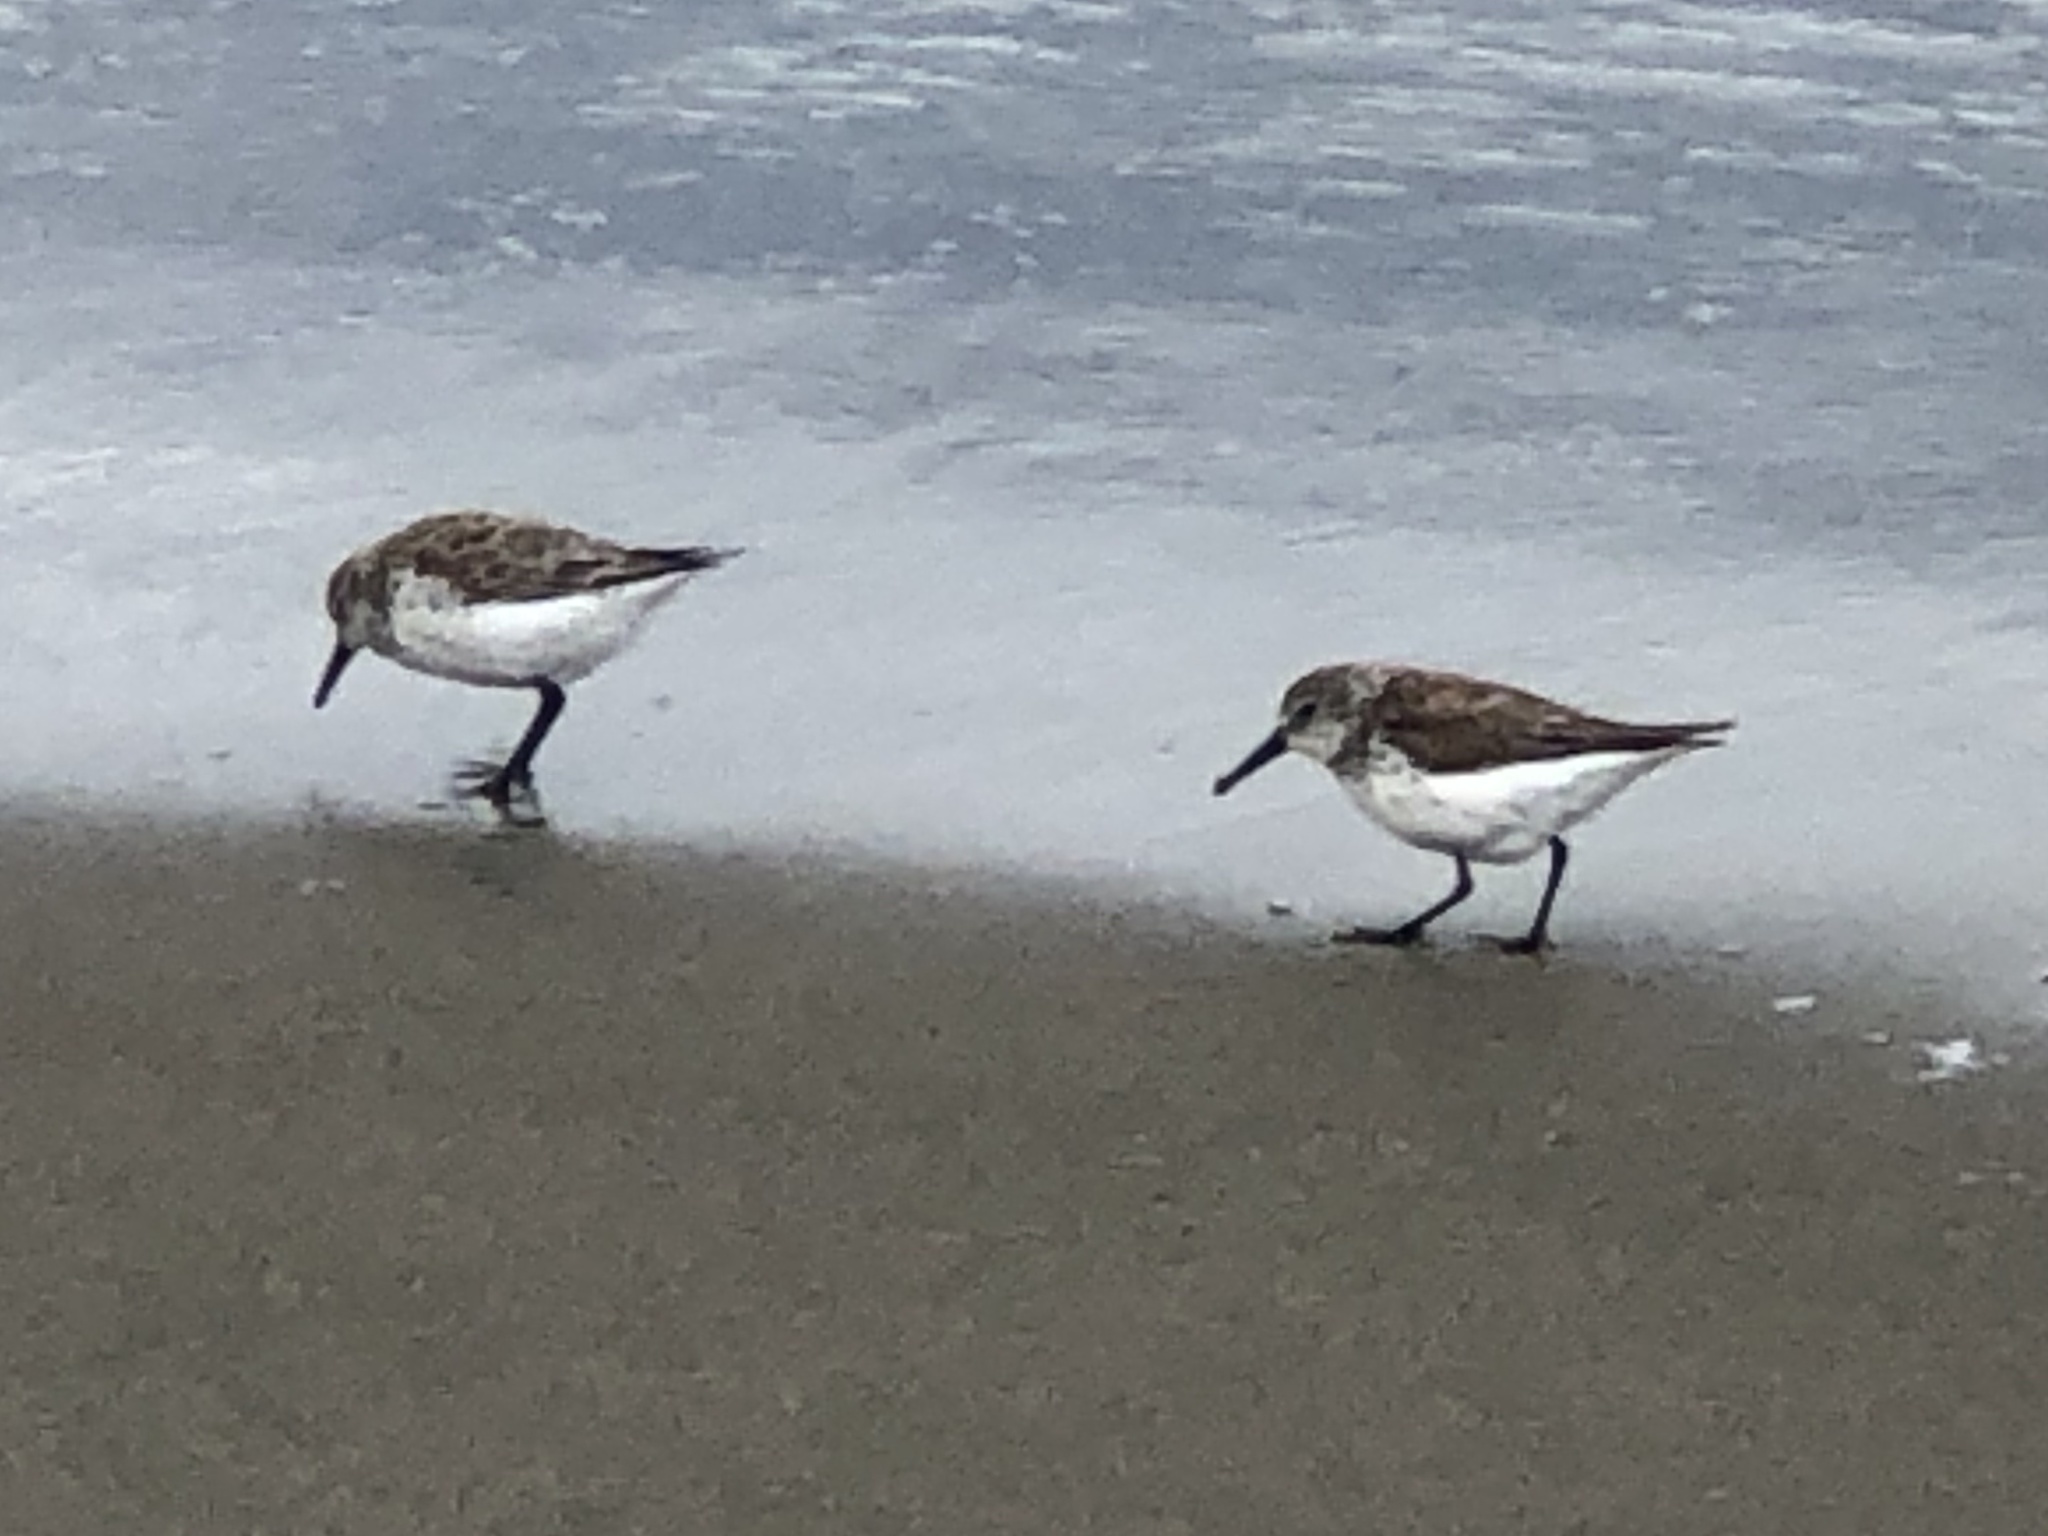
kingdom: Animalia
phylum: Chordata
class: Aves
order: Charadriiformes
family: Scolopacidae
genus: Calidris
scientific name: Calidris mauri
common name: Western sandpiper
